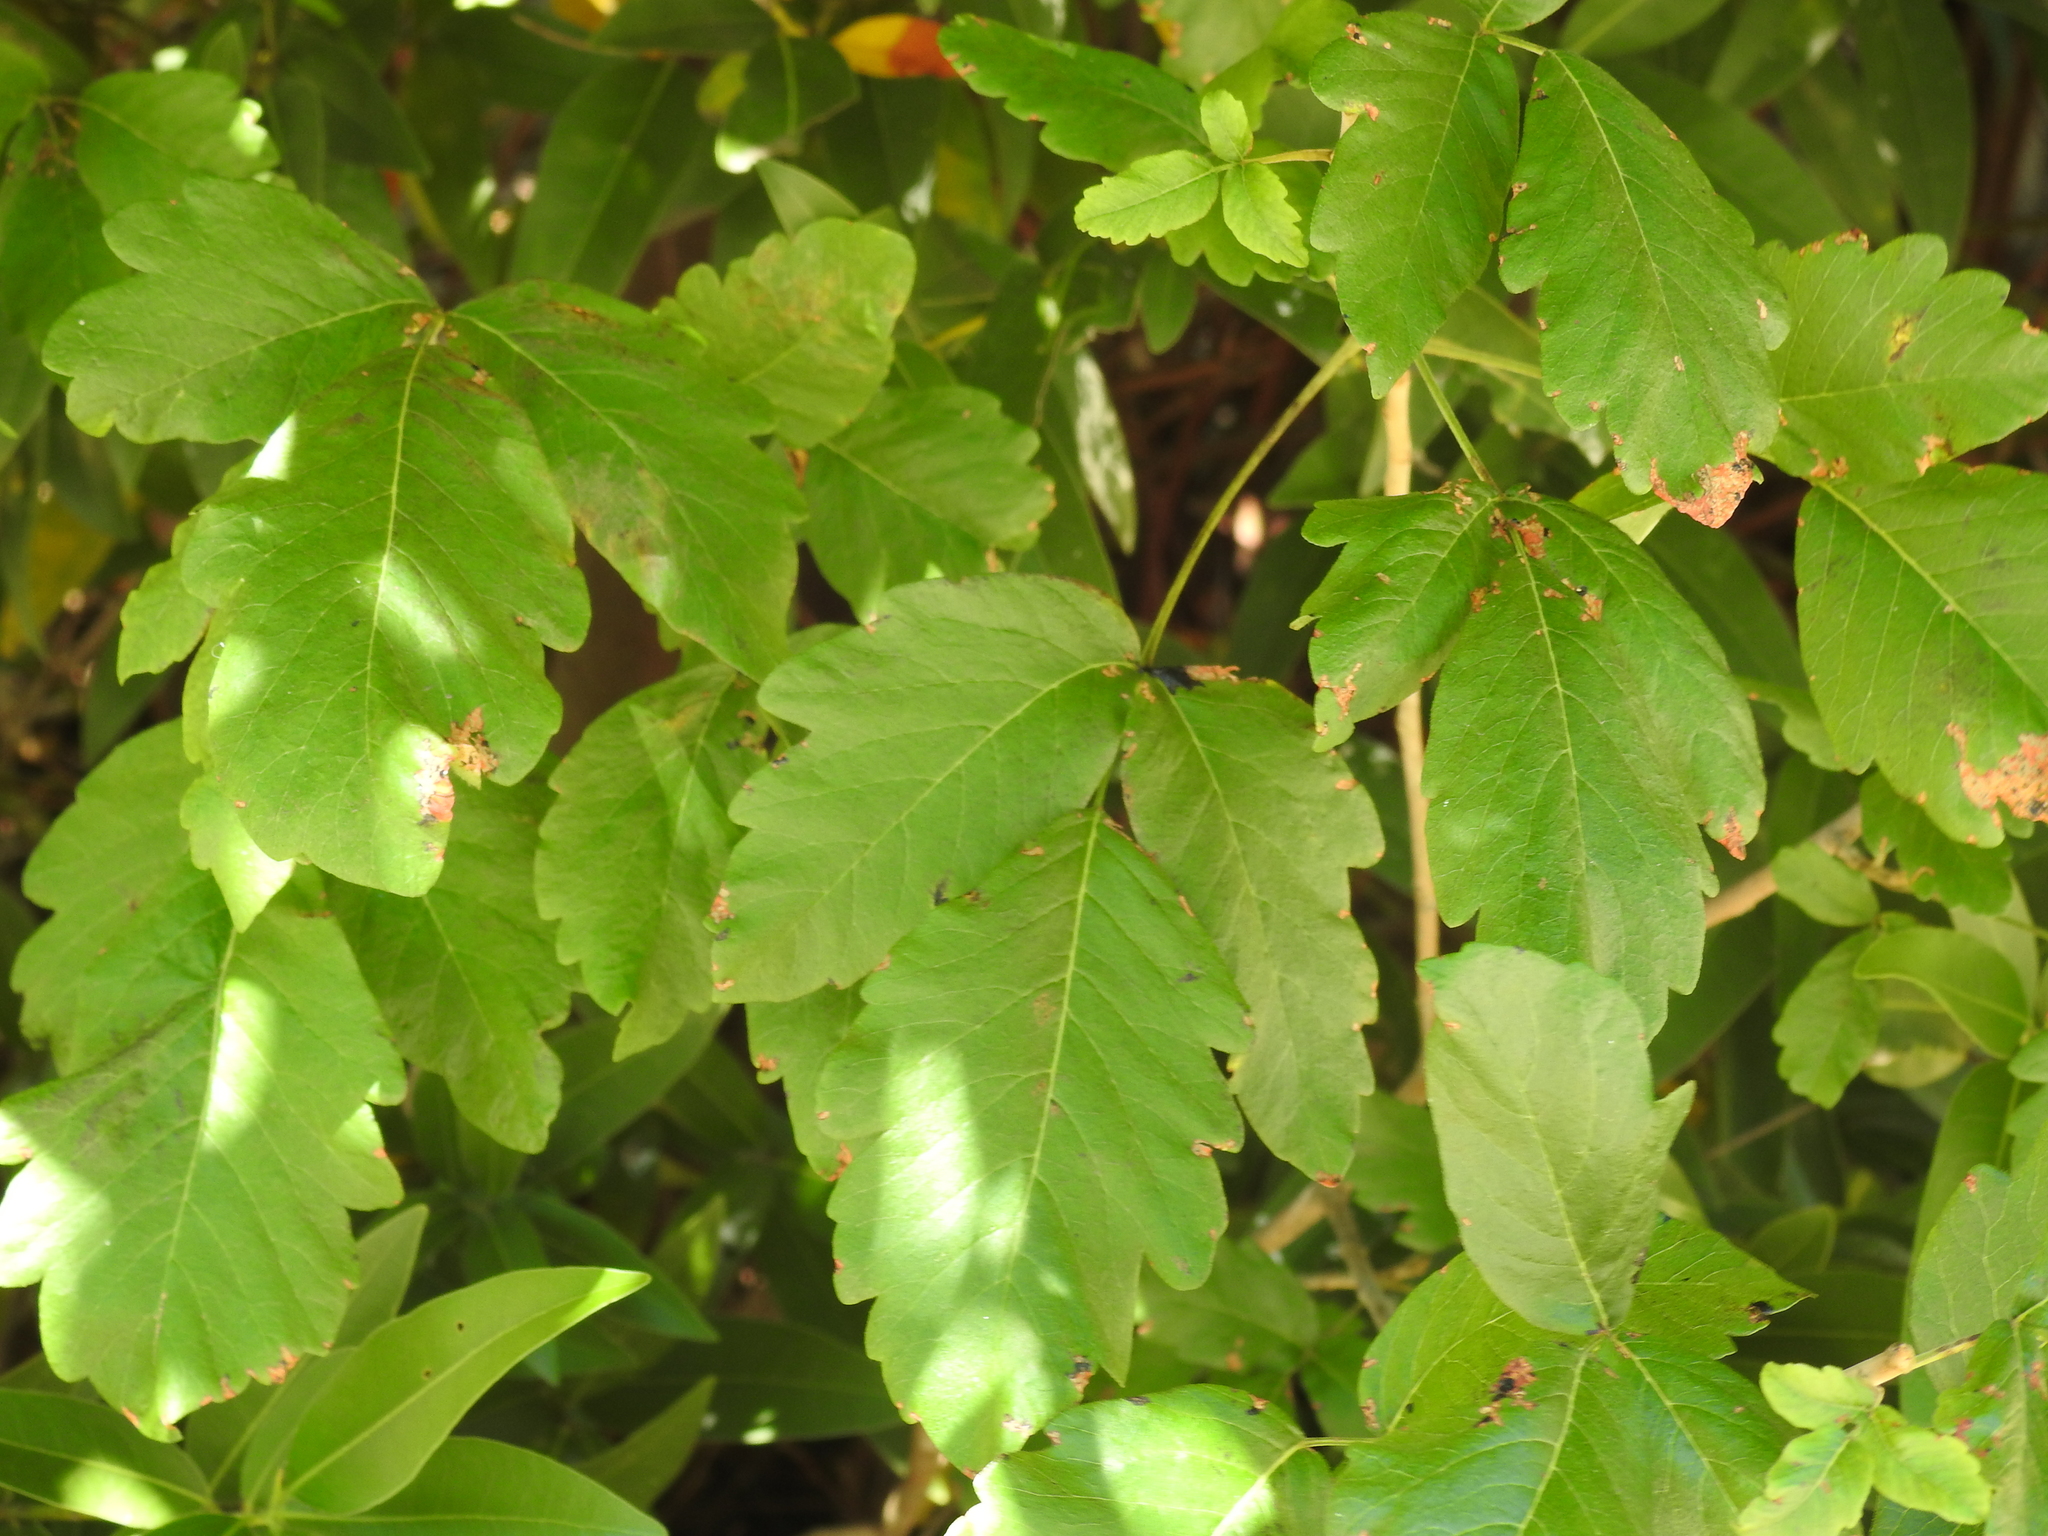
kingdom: Plantae
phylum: Tracheophyta
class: Magnoliopsida
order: Sapindales
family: Sapindaceae
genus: Acer
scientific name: Acer negundo
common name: Ashleaf maple
